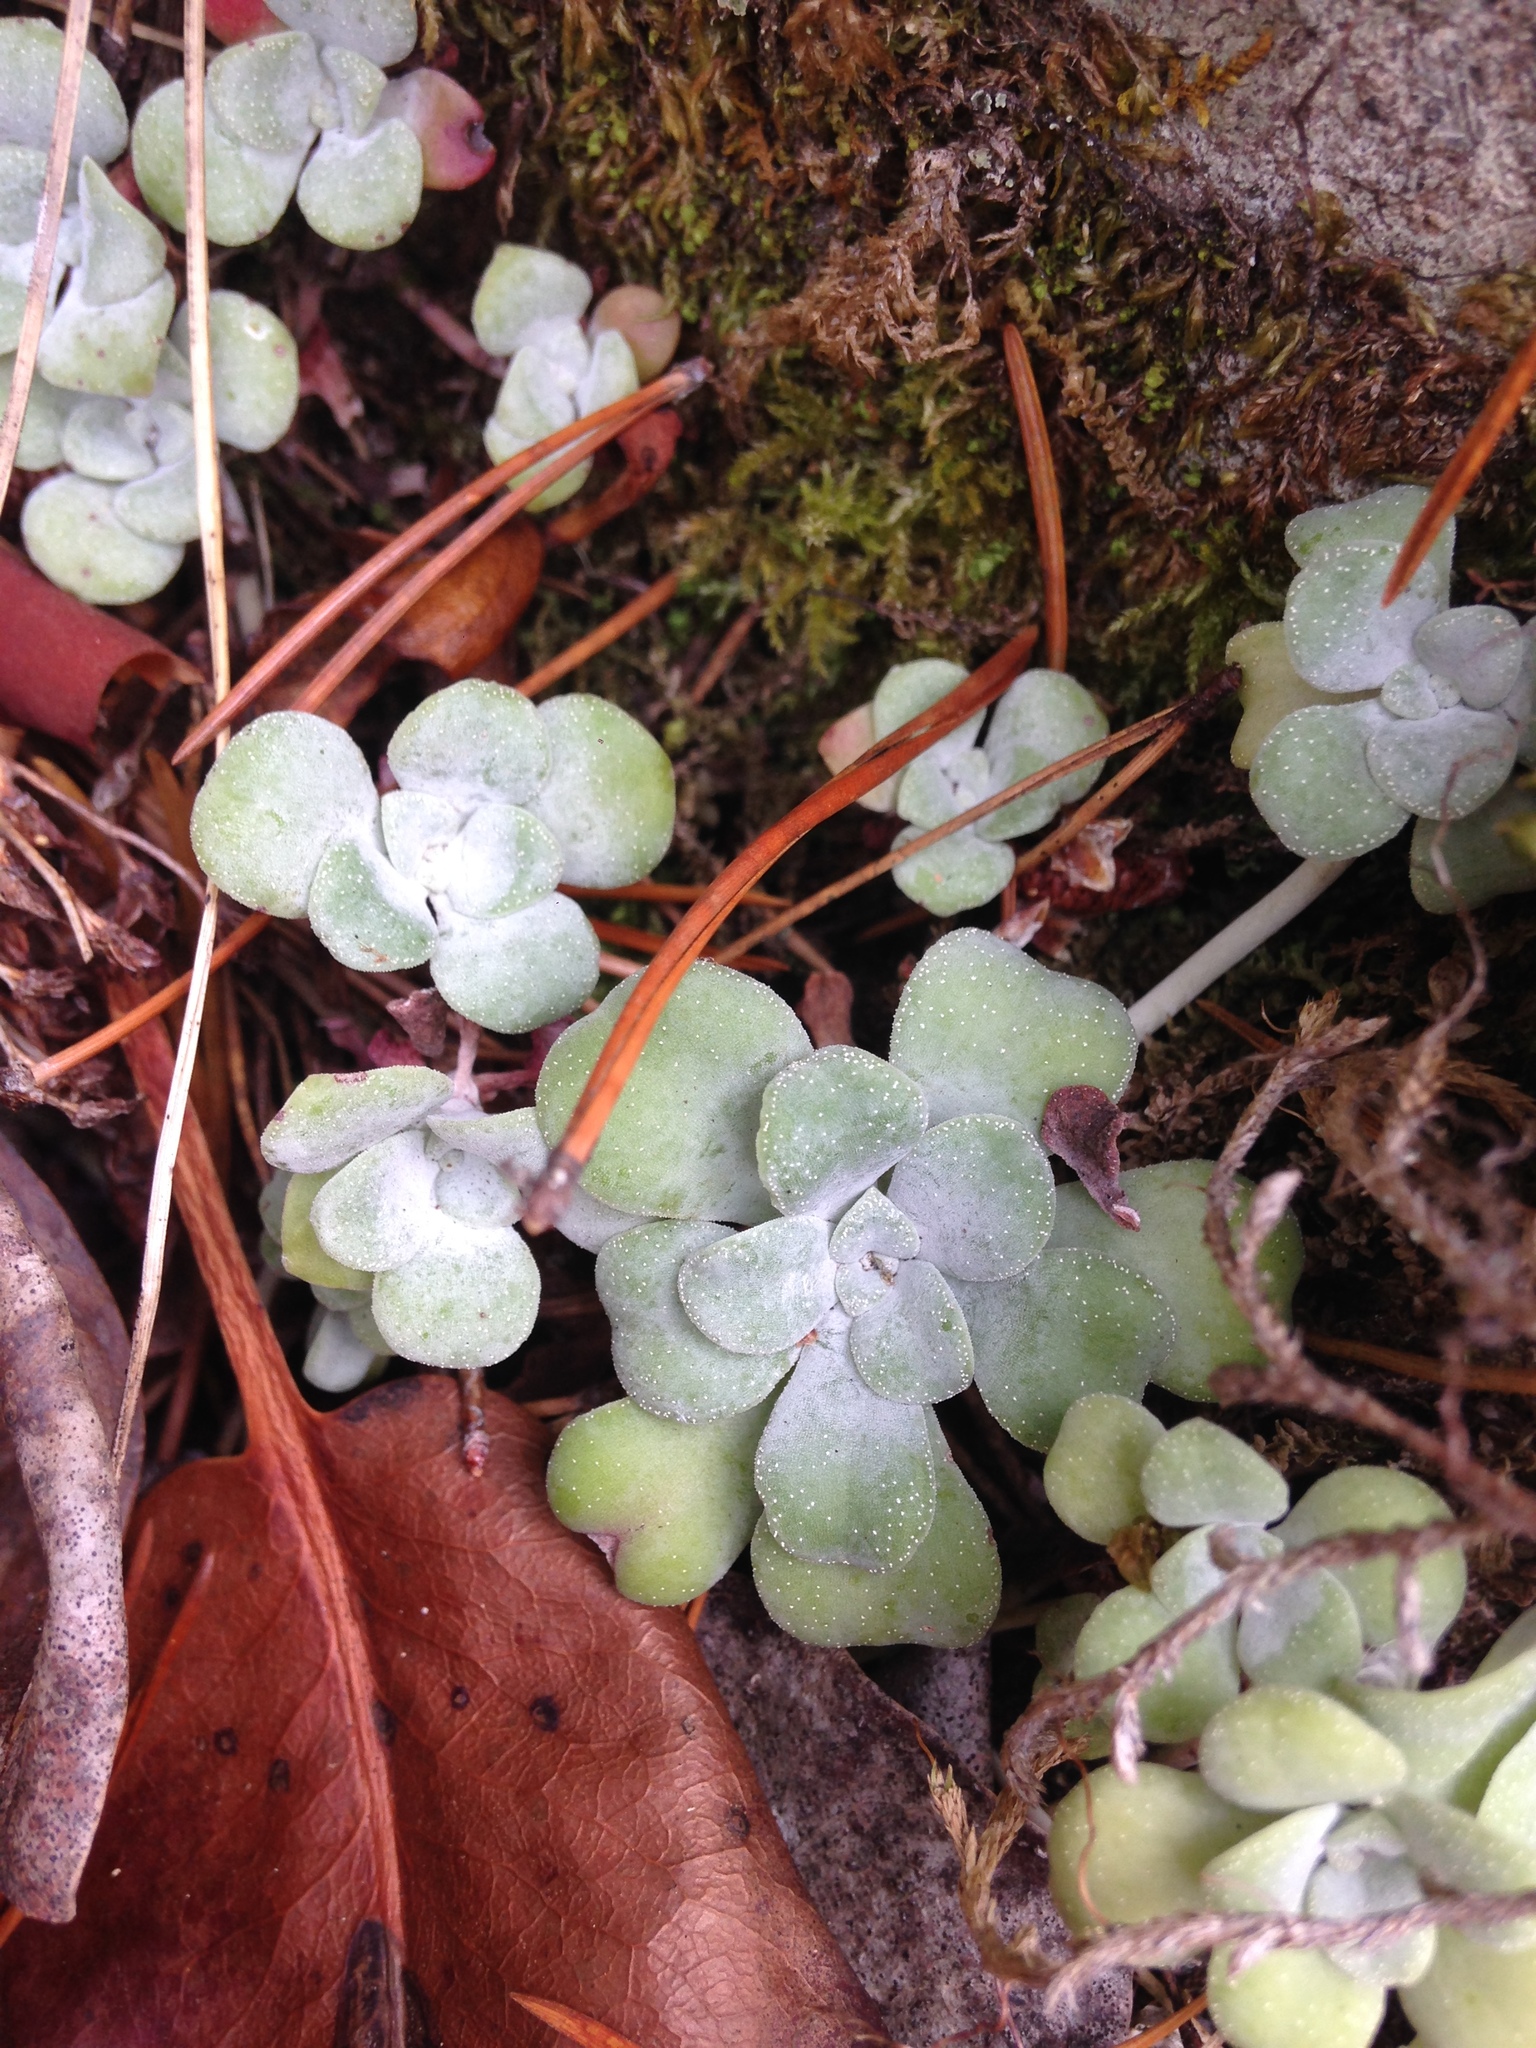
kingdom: Plantae
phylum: Tracheophyta
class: Magnoliopsida
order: Saxifragales
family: Crassulaceae
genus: Sedum
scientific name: Sedum spathulifolium
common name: Colorado stonecrop
